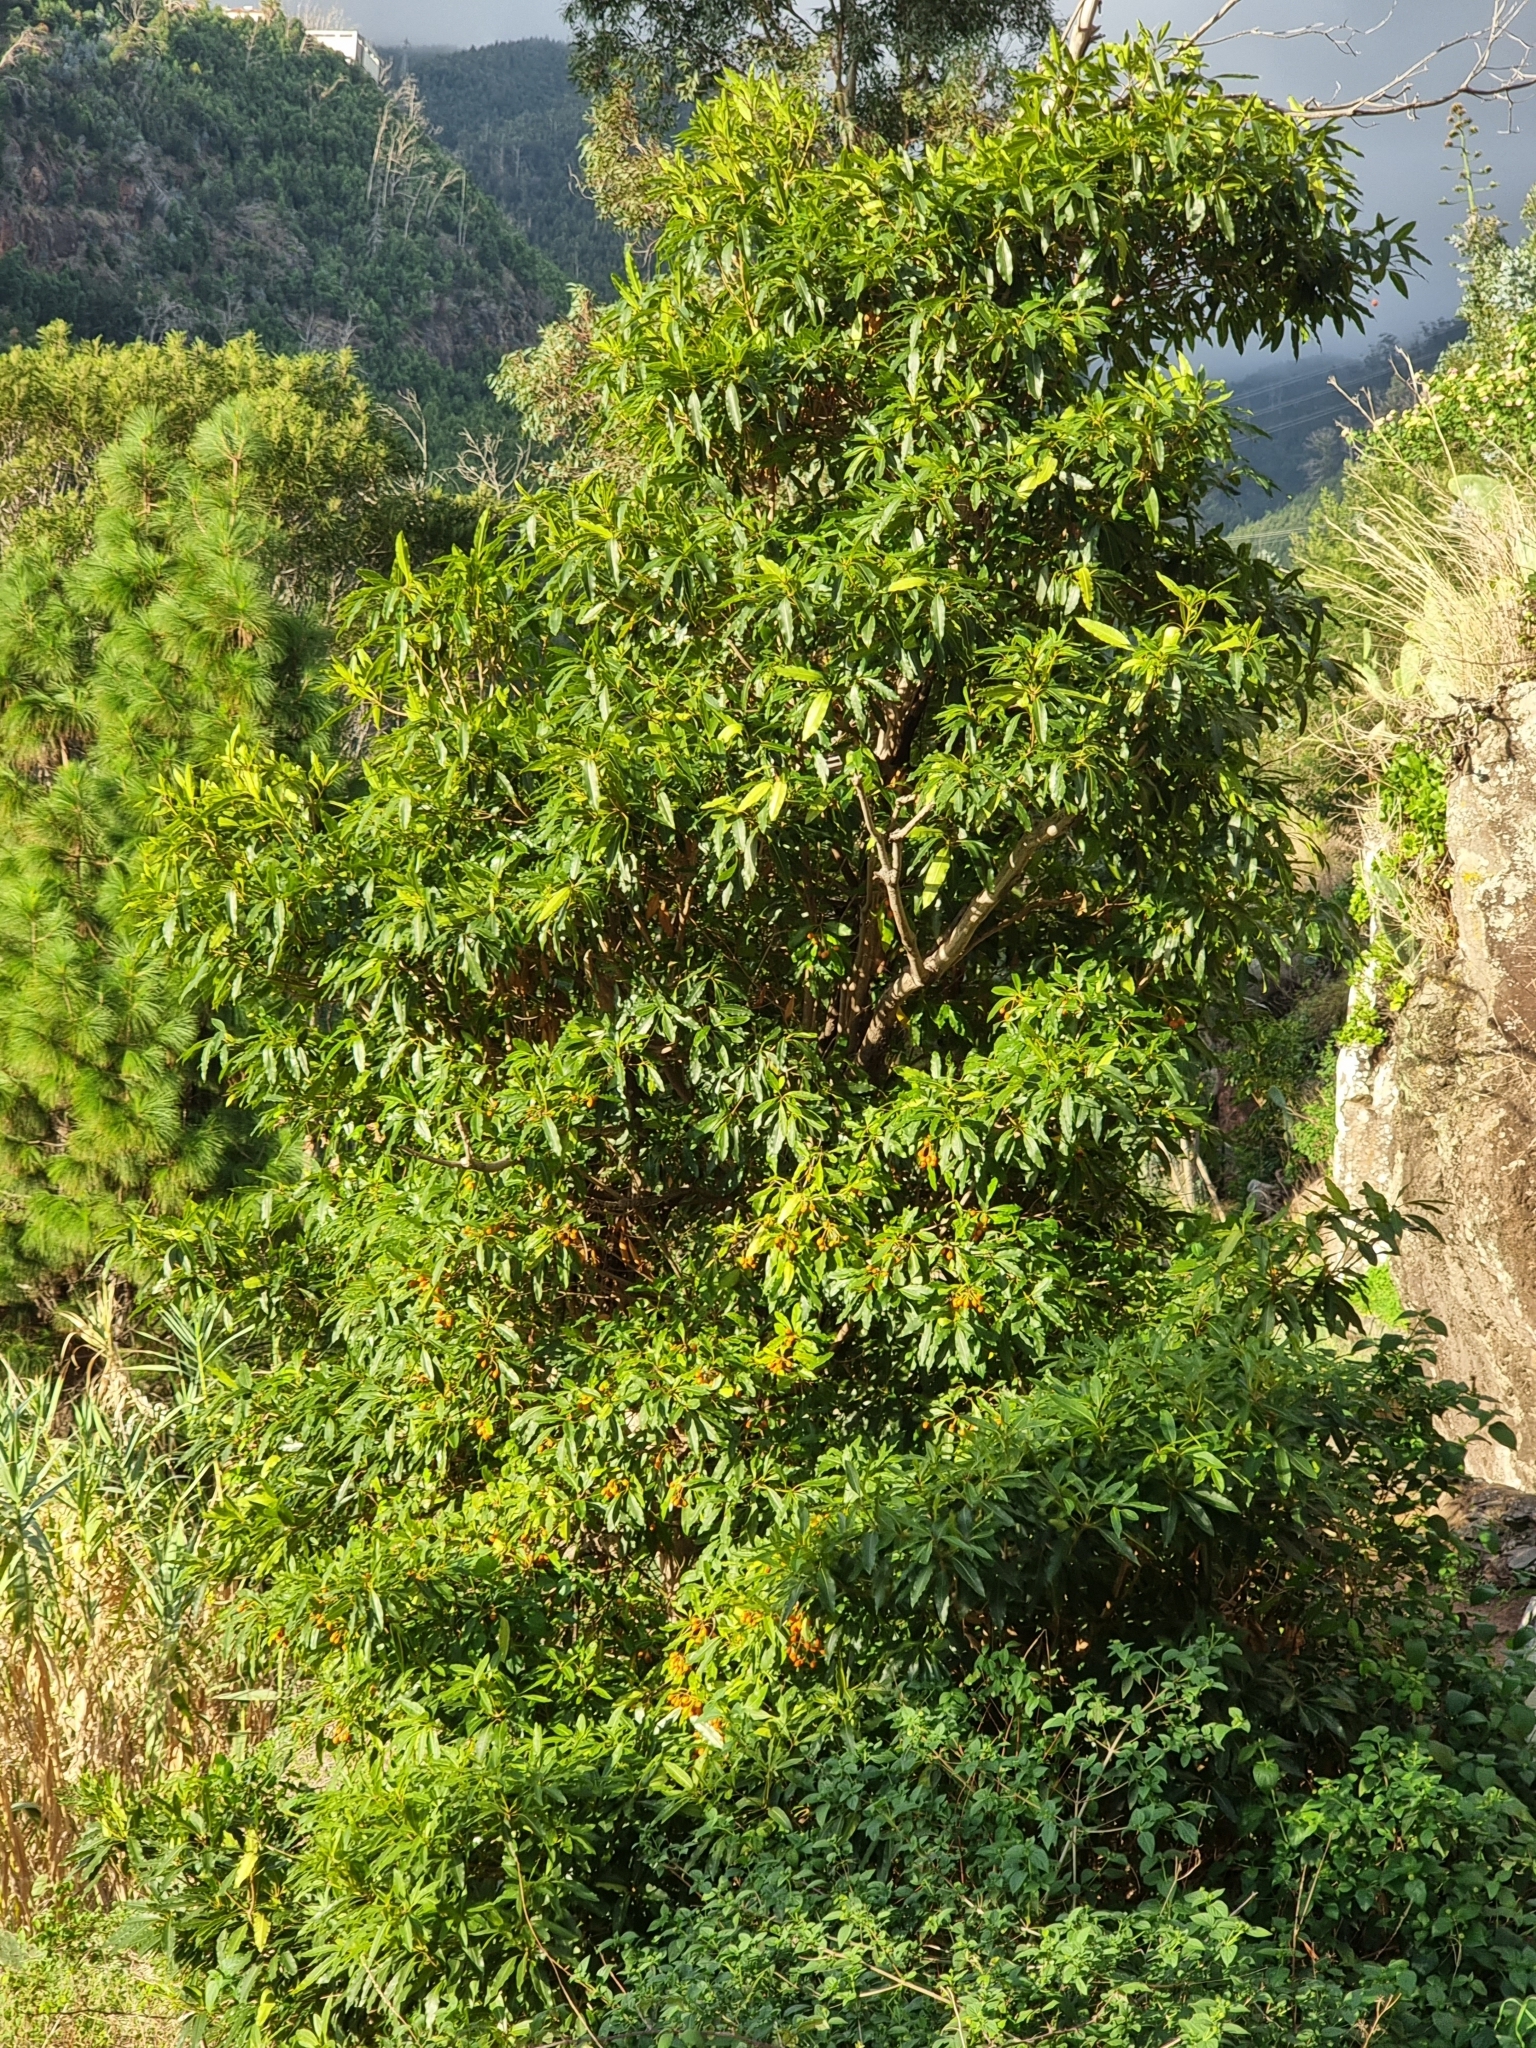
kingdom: Plantae
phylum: Tracheophyta
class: Magnoliopsida
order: Apiales
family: Pittosporaceae
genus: Pittosporum
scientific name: Pittosporum undulatum
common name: Australian cheesewood
